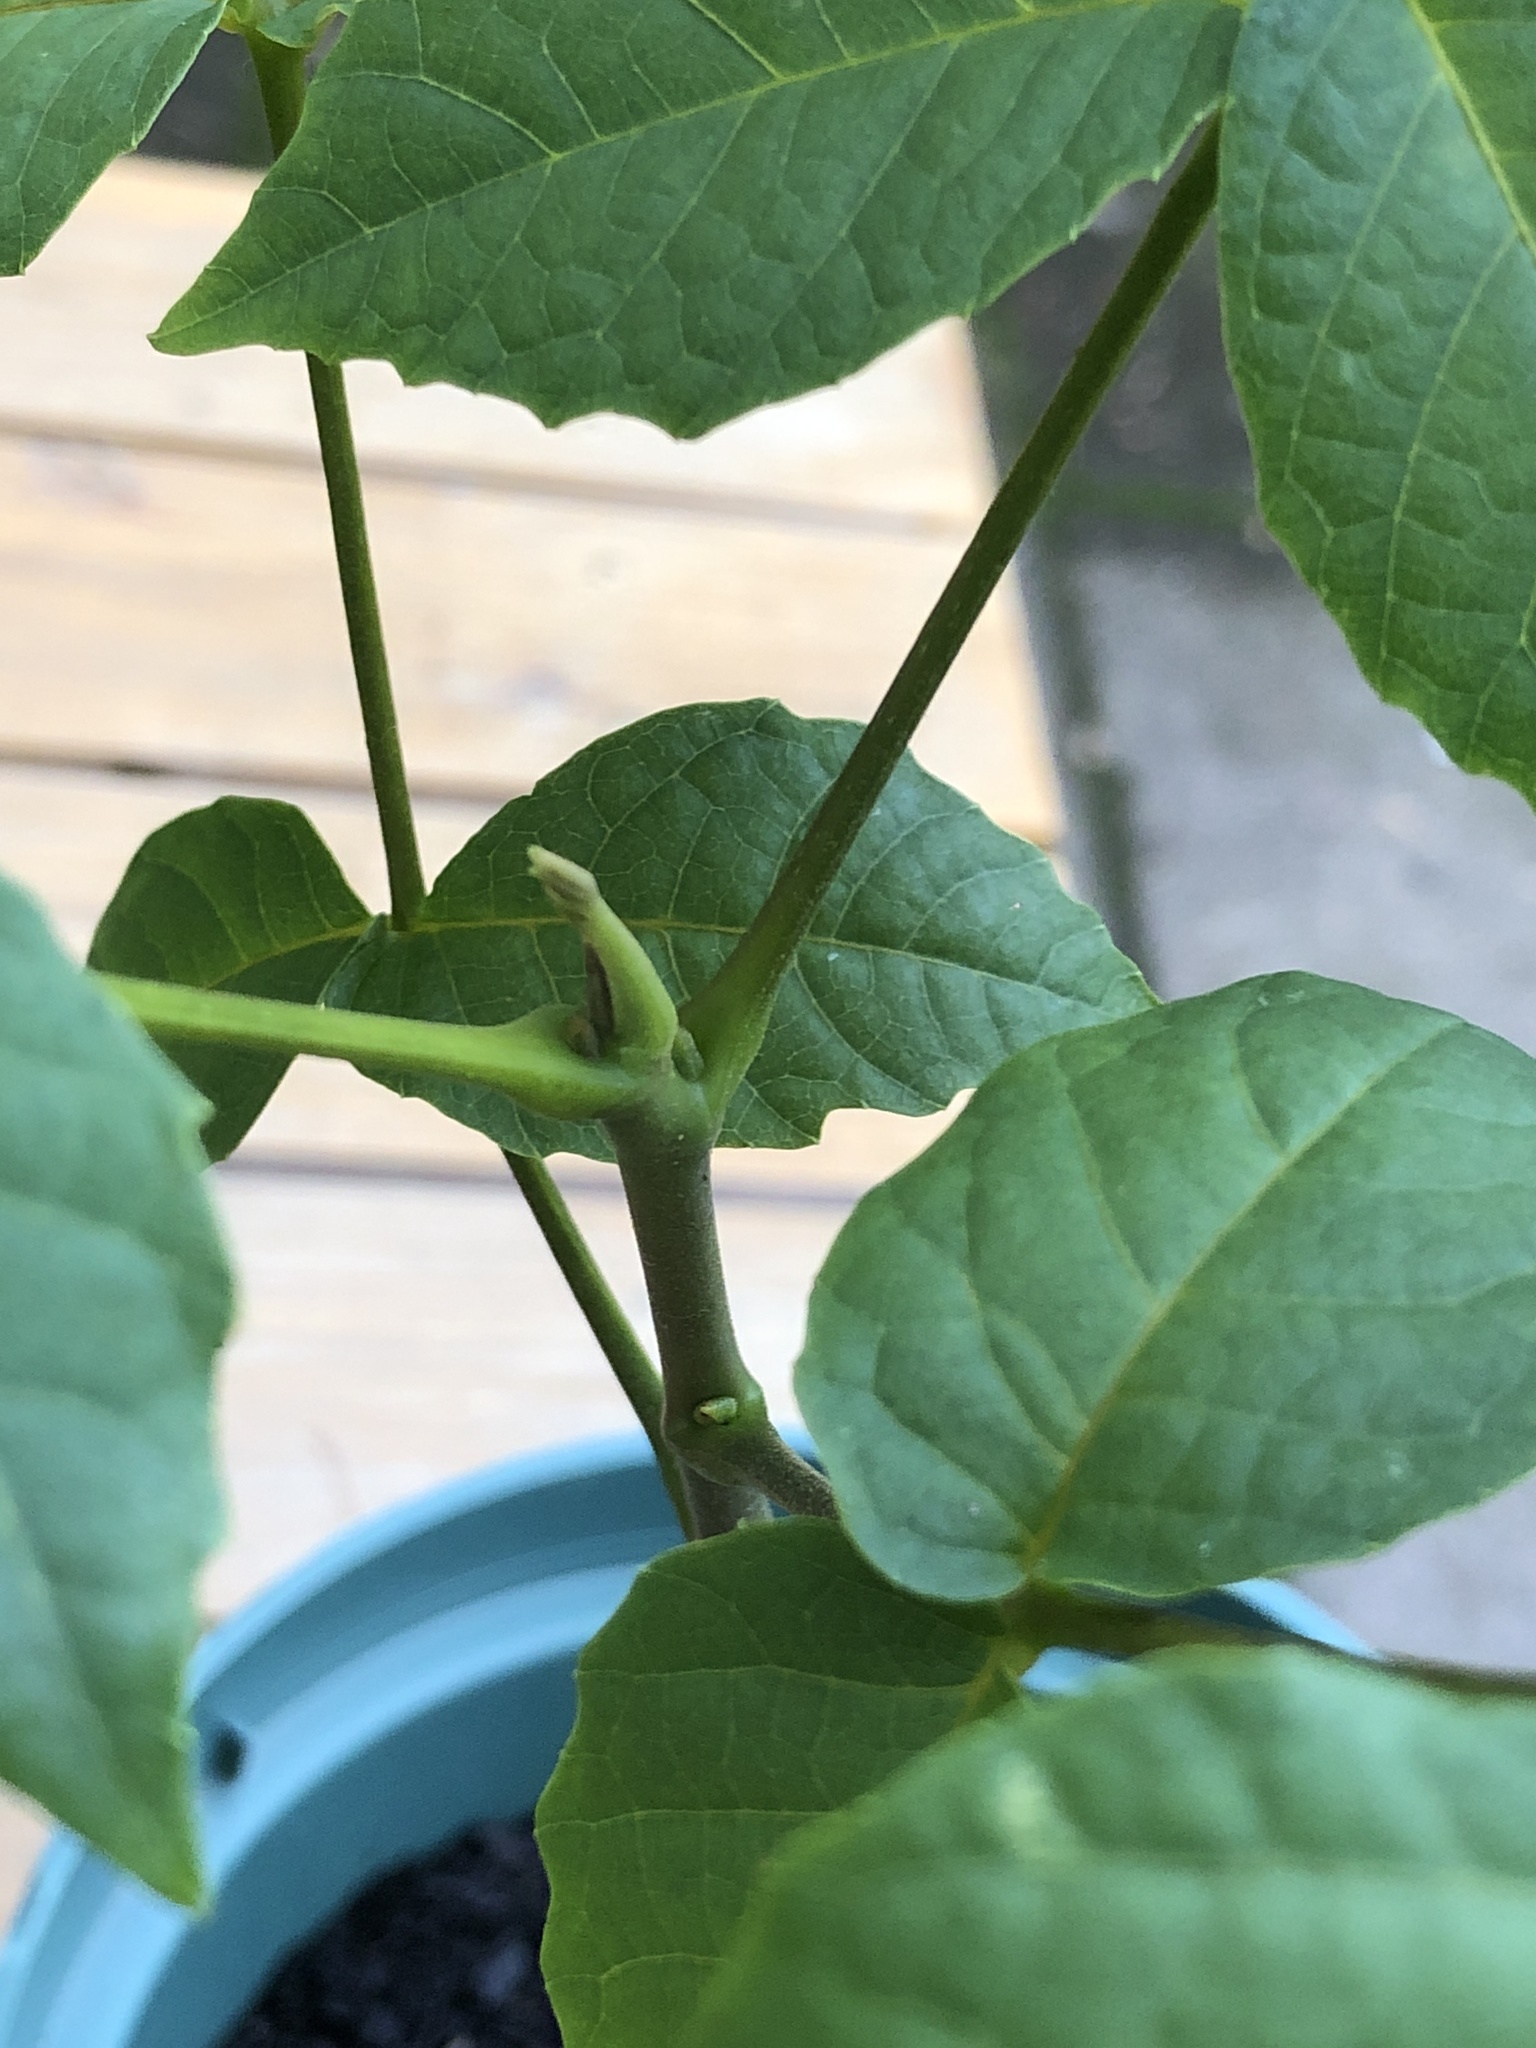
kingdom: Plantae
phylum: Tracheophyta
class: Magnoliopsida
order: Fagales
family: Juglandaceae
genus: Juglans
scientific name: Juglans nigra
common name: Black walnut
